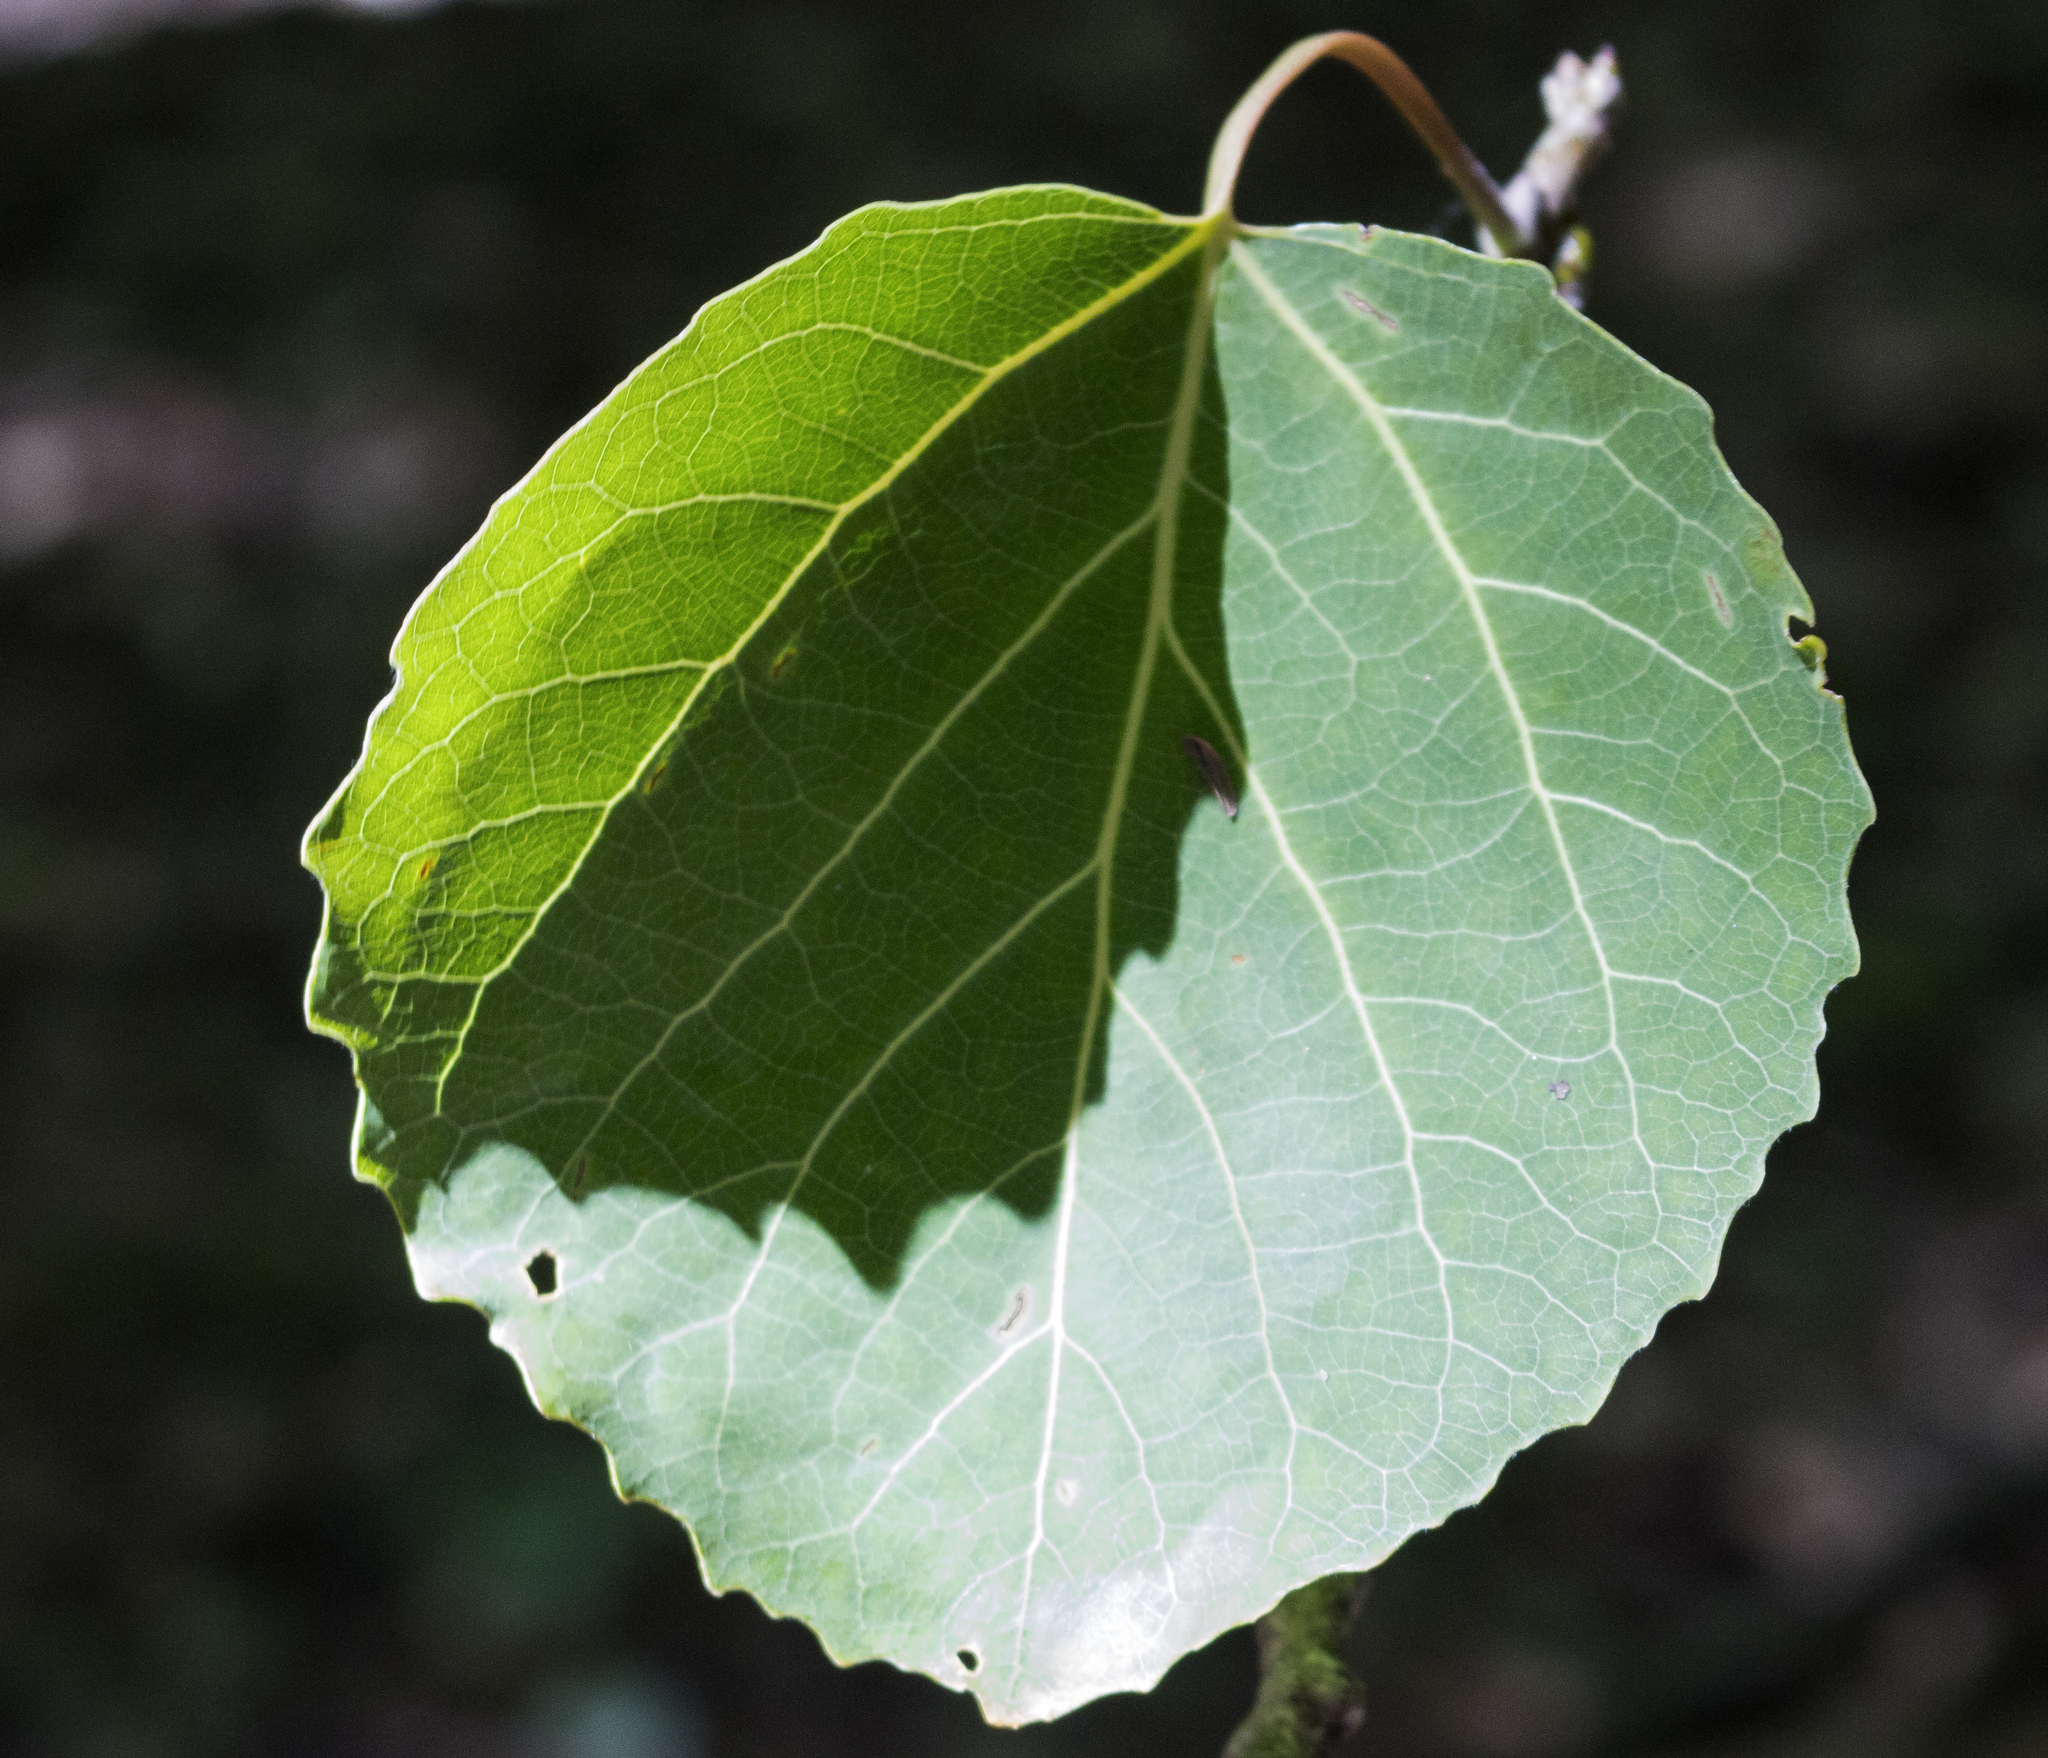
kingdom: Plantae
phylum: Tracheophyta
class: Magnoliopsida
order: Malpighiales
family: Salicaceae
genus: Populus
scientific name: Populus grandidentata
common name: Bigtooth aspen
